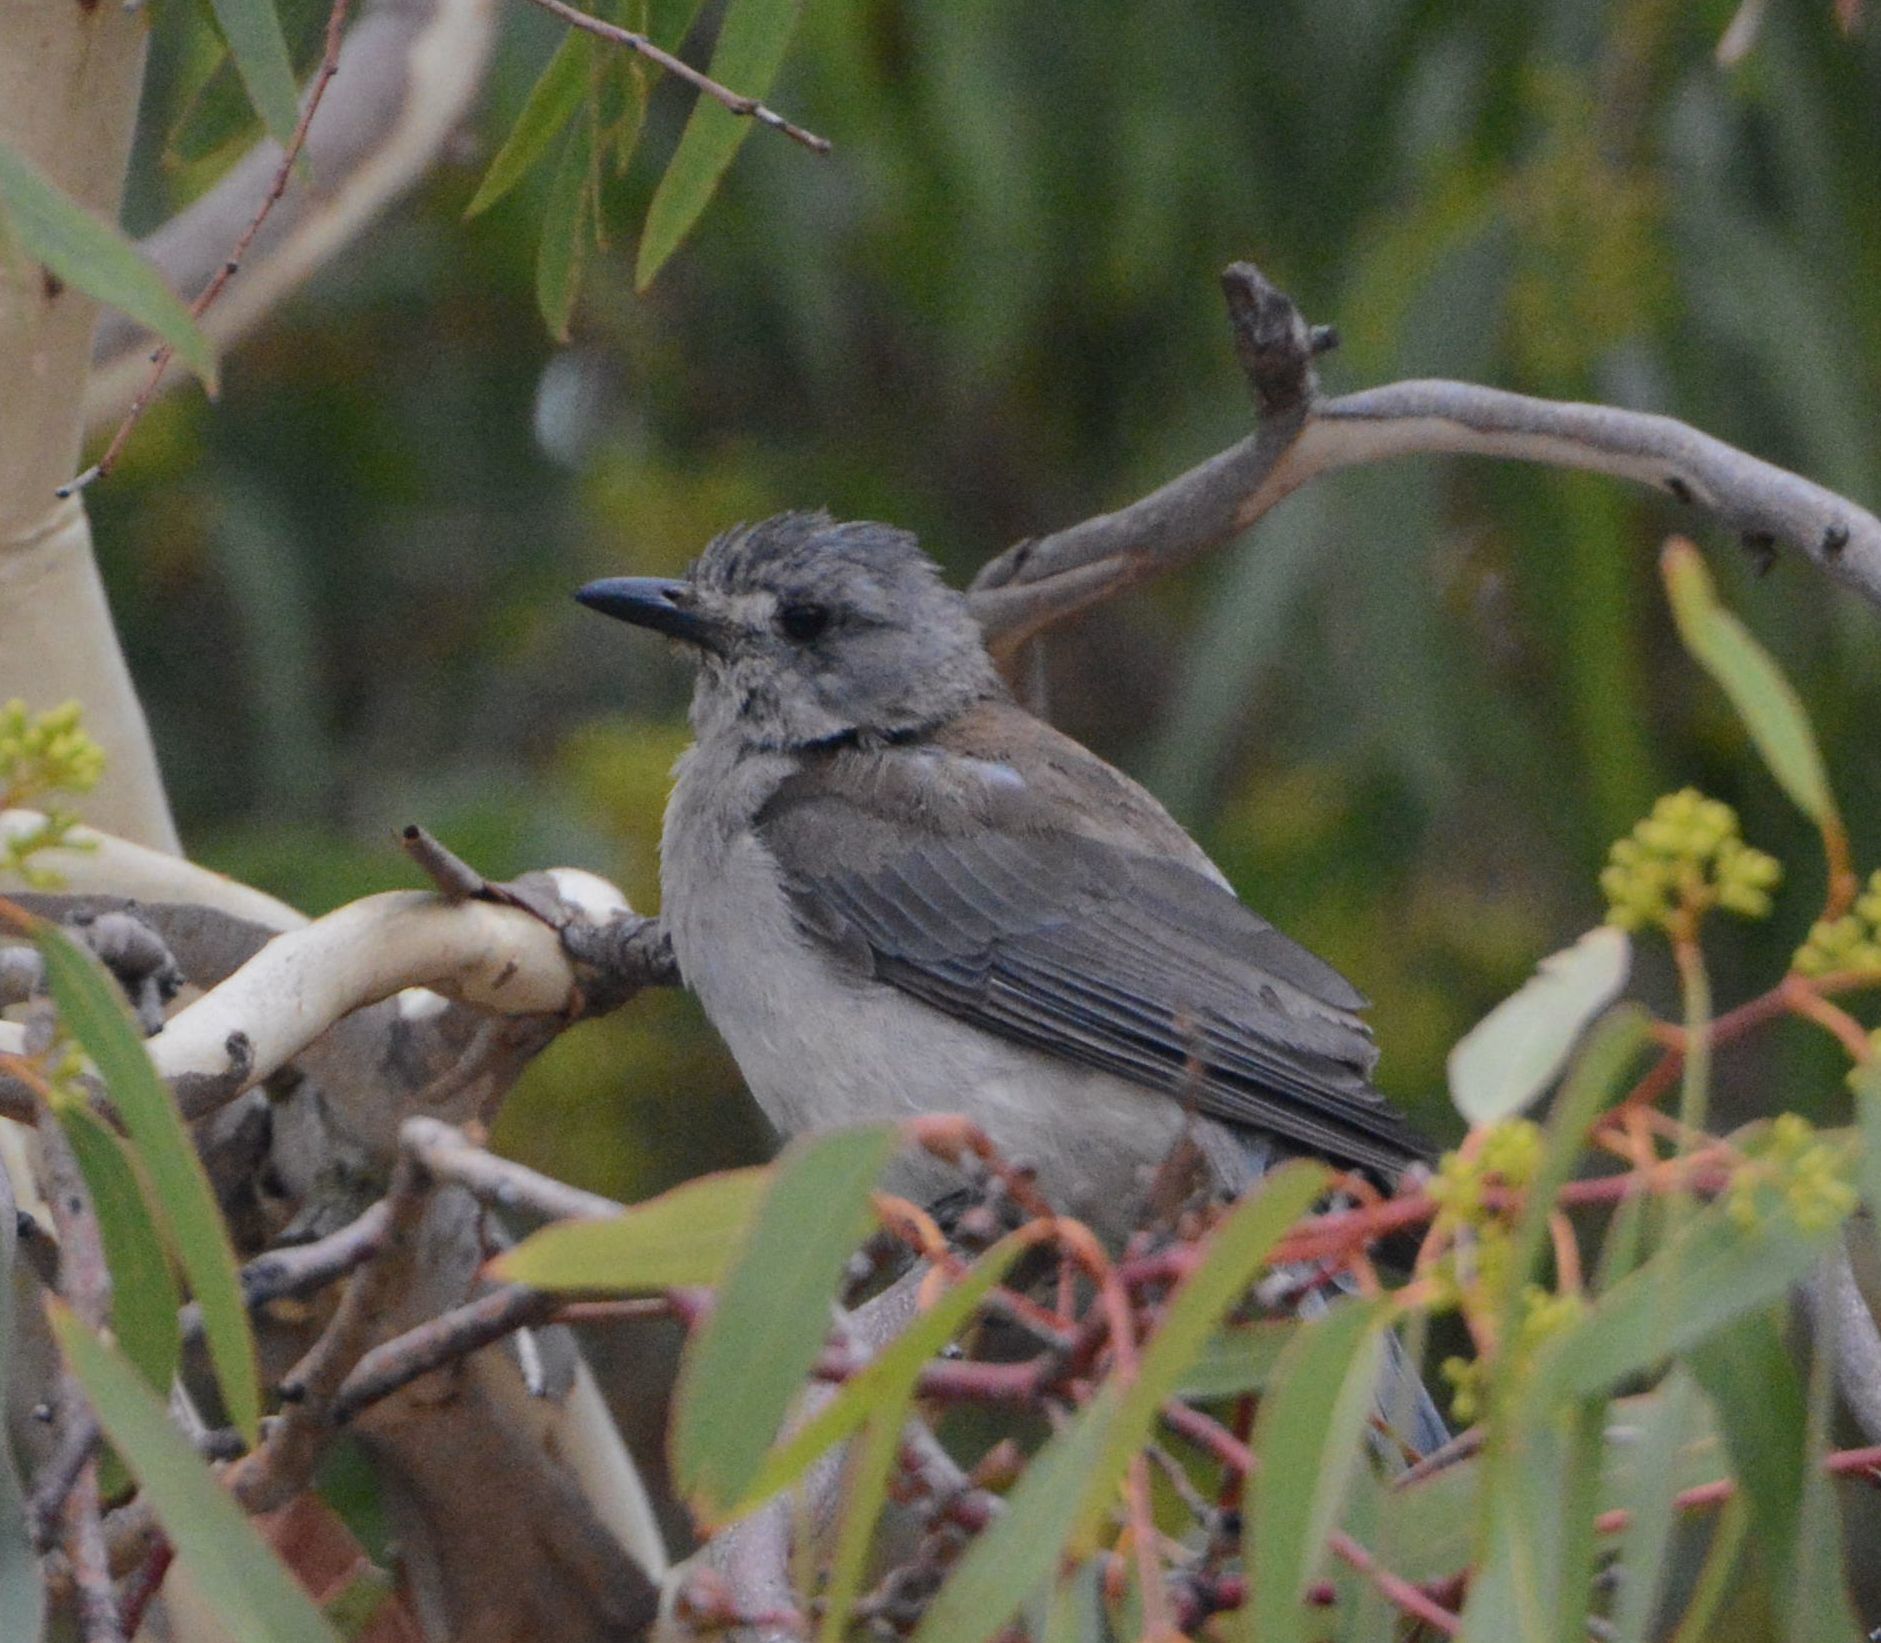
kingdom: Animalia
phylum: Chordata
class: Aves
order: Passeriformes
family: Pachycephalidae
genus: Colluricincla
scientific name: Colluricincla harmonica
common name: Grey shrikethrush
